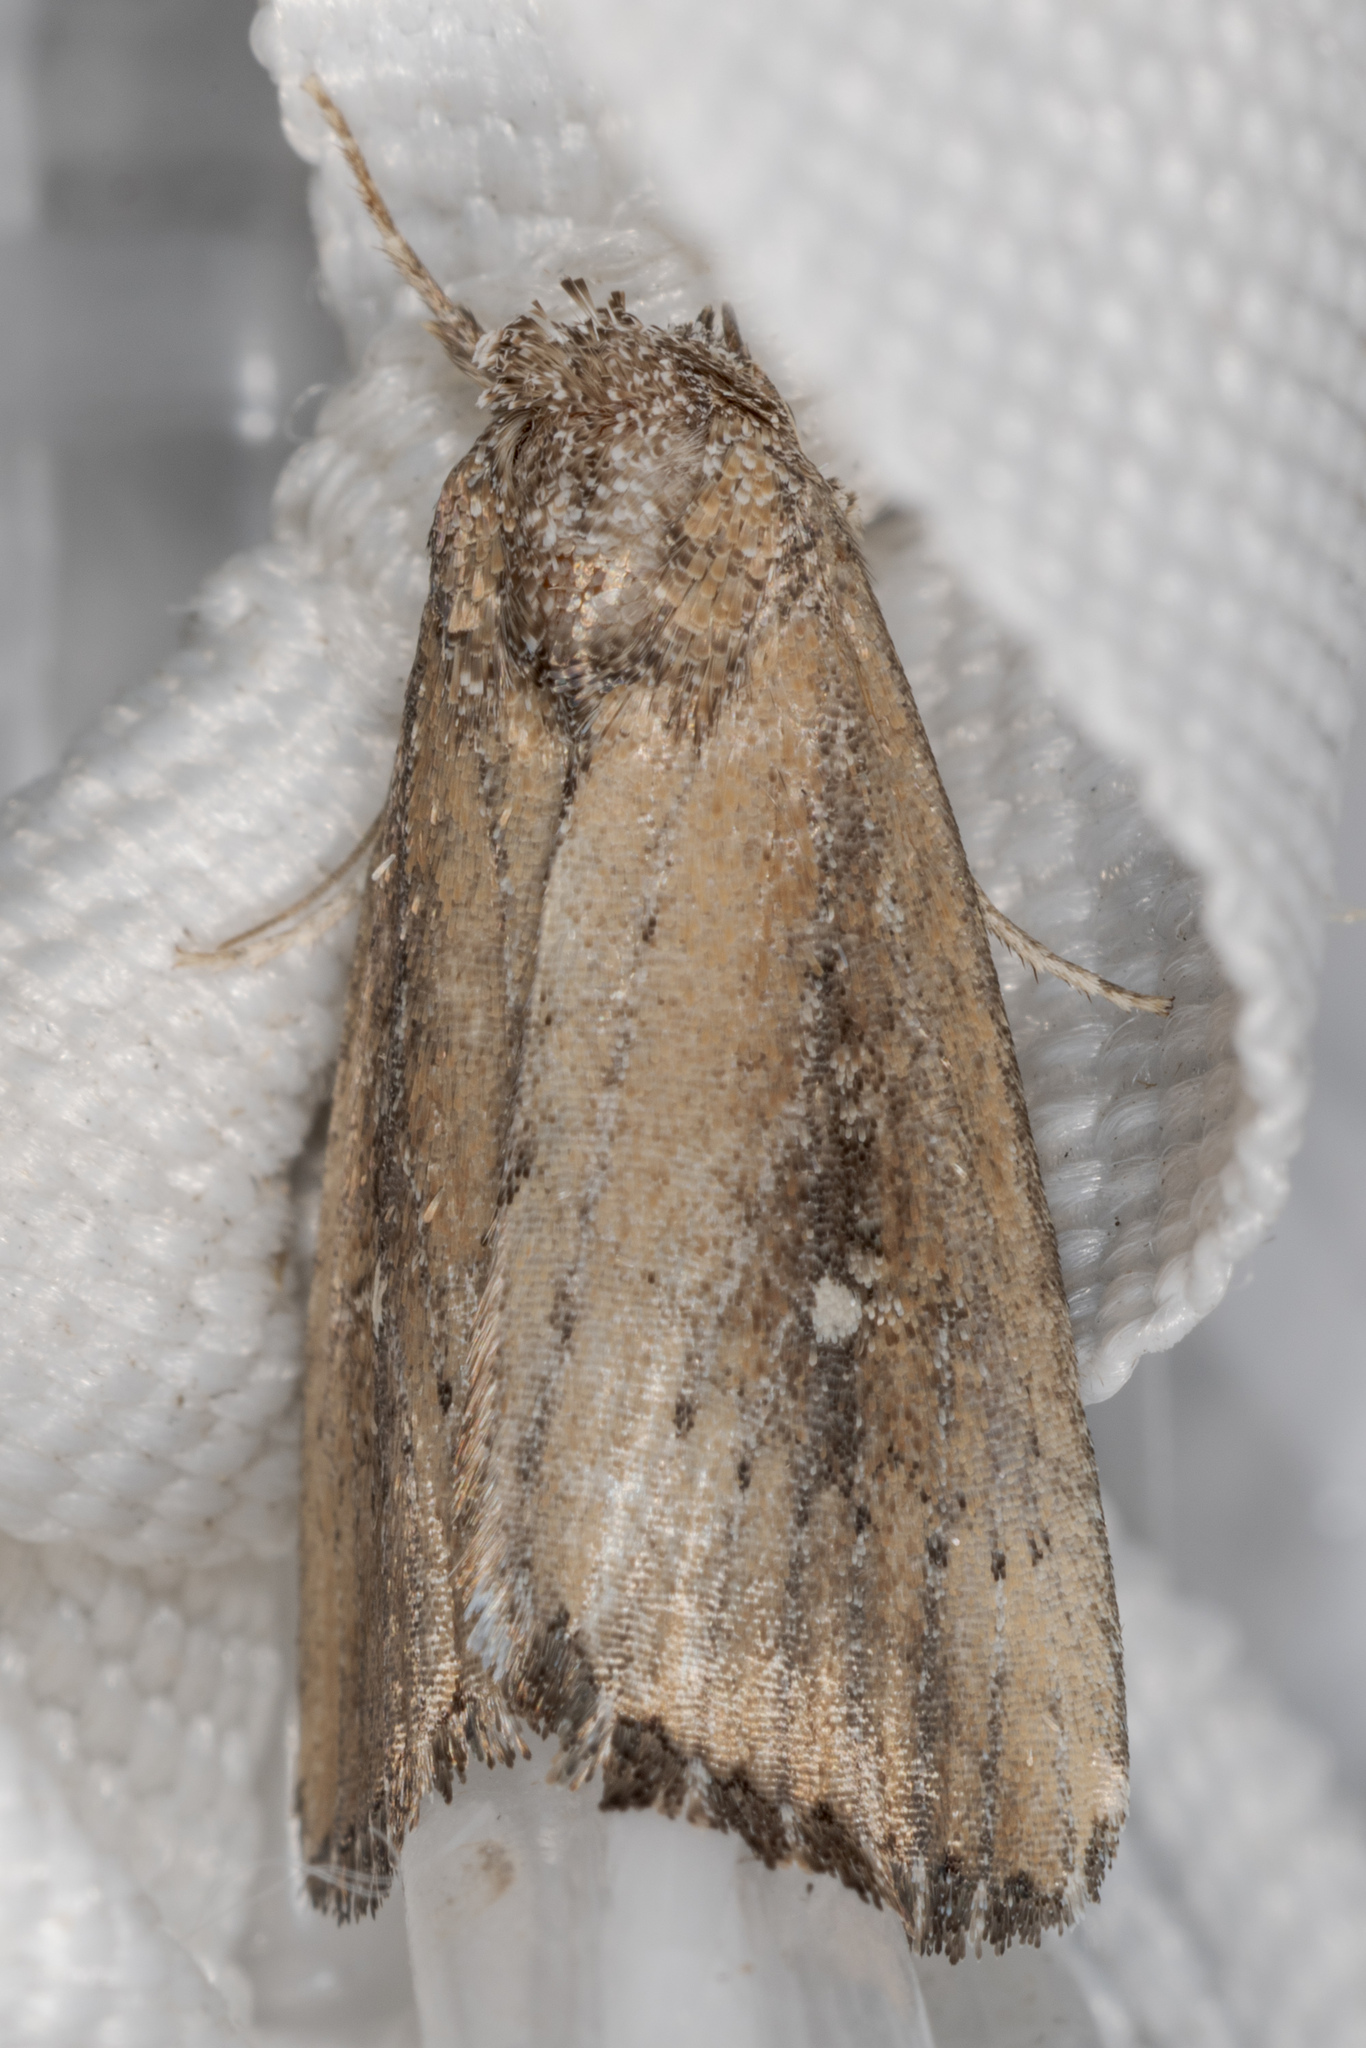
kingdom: Animalia
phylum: Arthropoda
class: Insecta
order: Lepidoptera
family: Noctuidae
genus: Condica
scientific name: Condica videns
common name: White-dotted groundling
